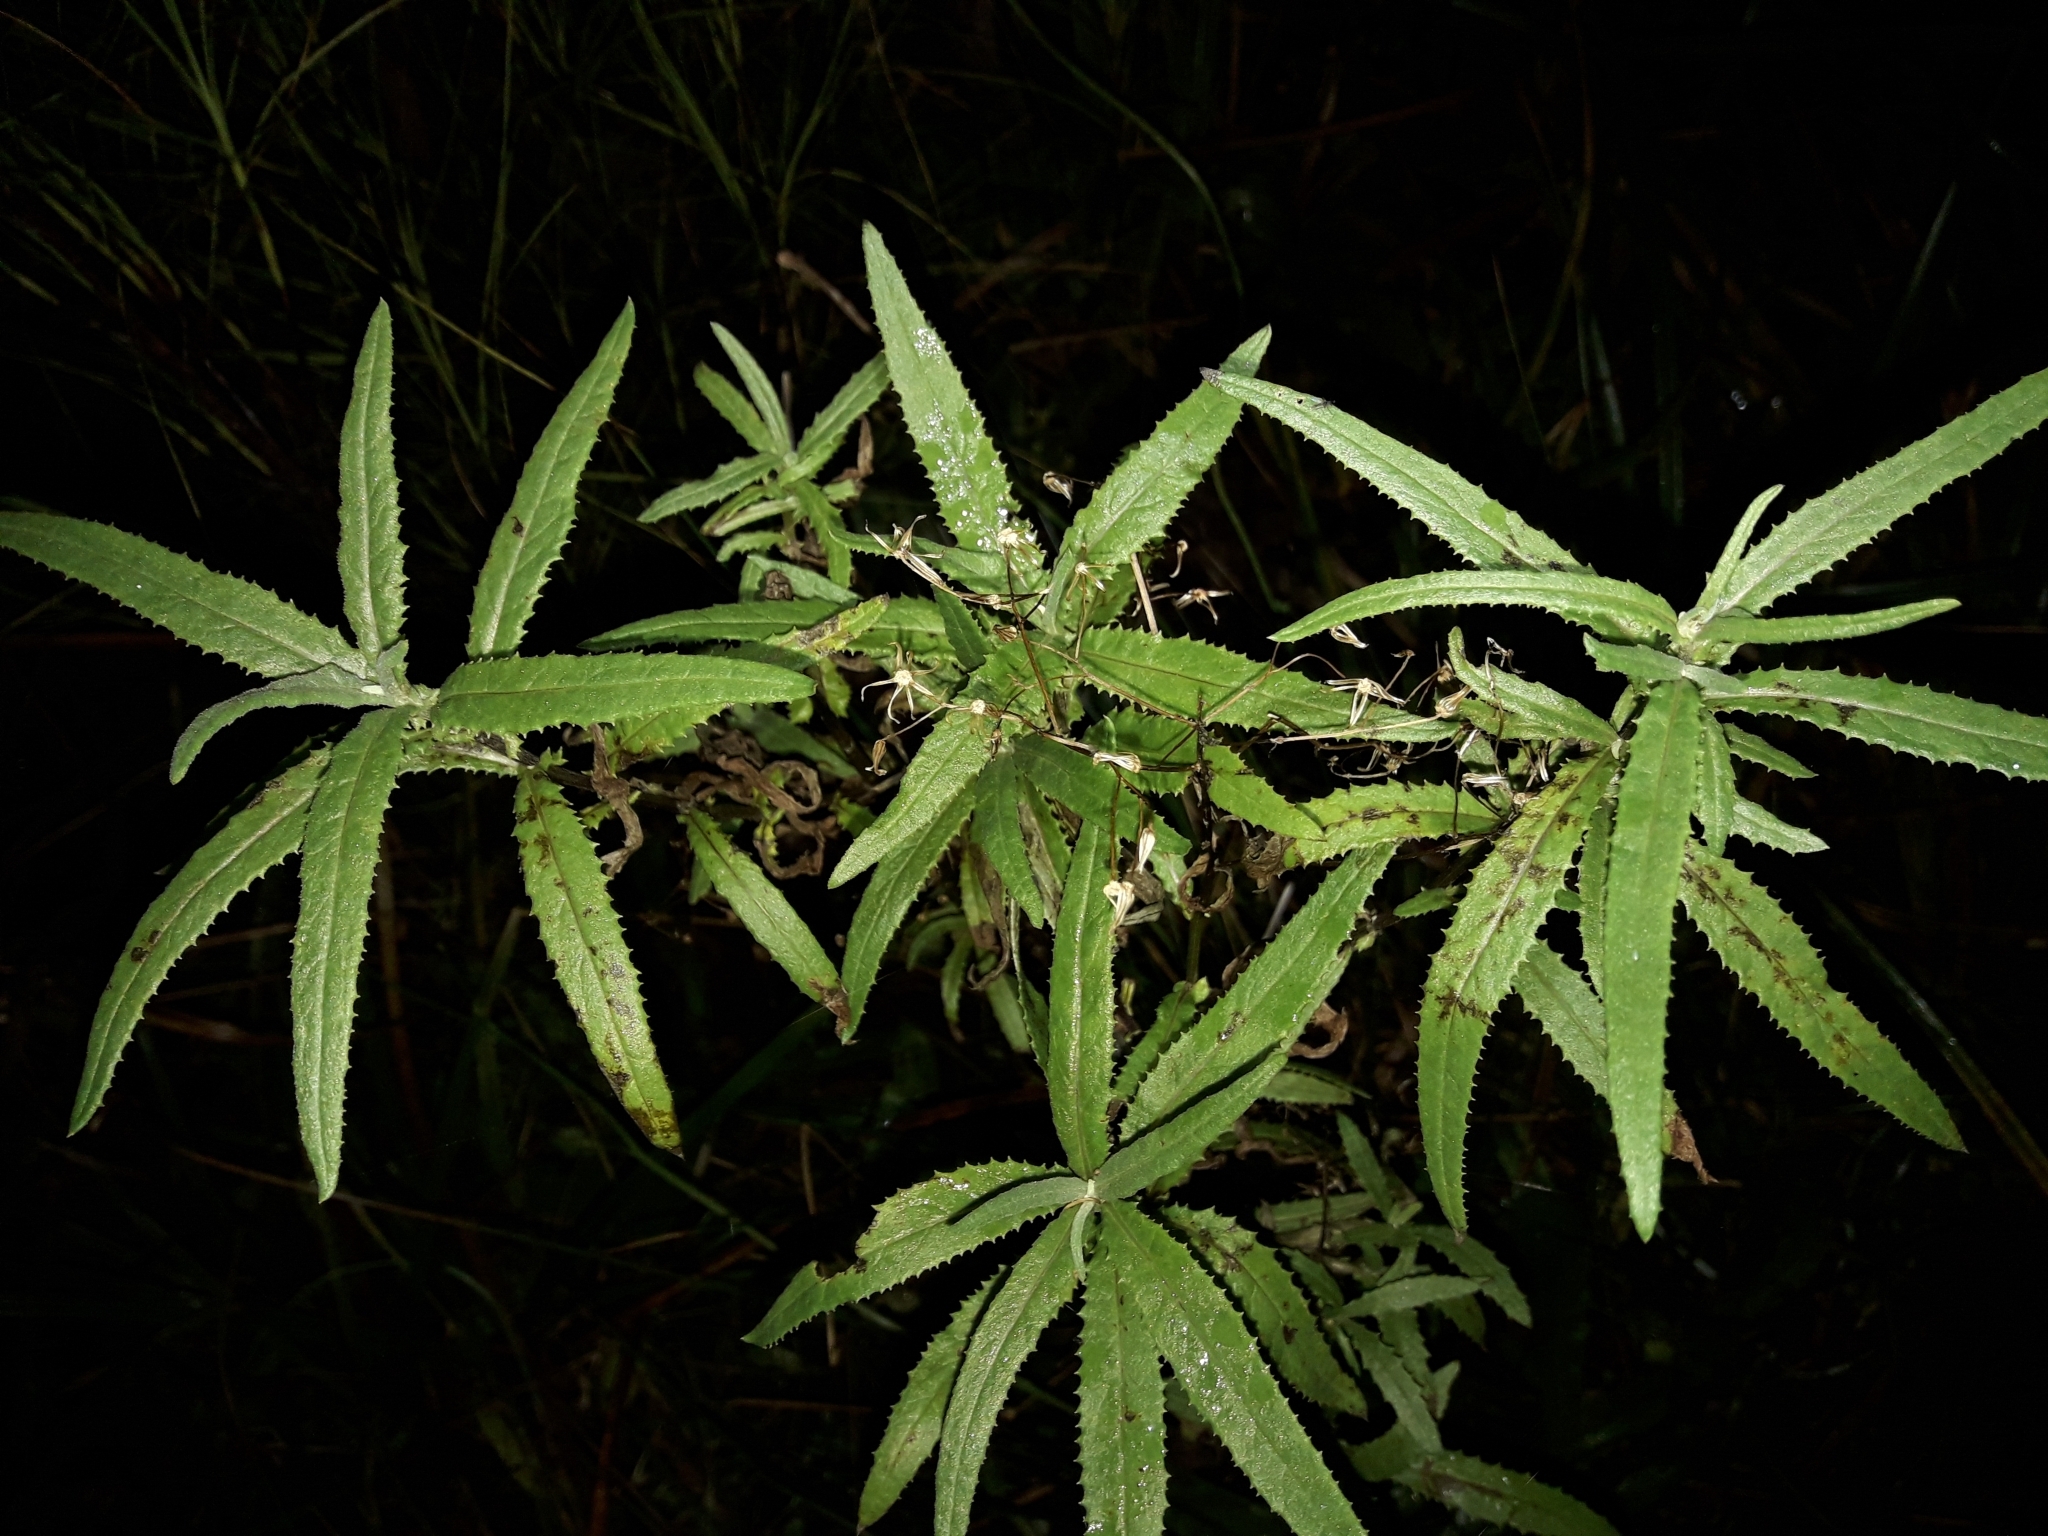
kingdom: Plantae
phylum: Tracheophyta
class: Magnoliopsida
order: Asterales
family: Asteraceae
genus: Senecio
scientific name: Senecio minimus
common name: Toothed fireweed
